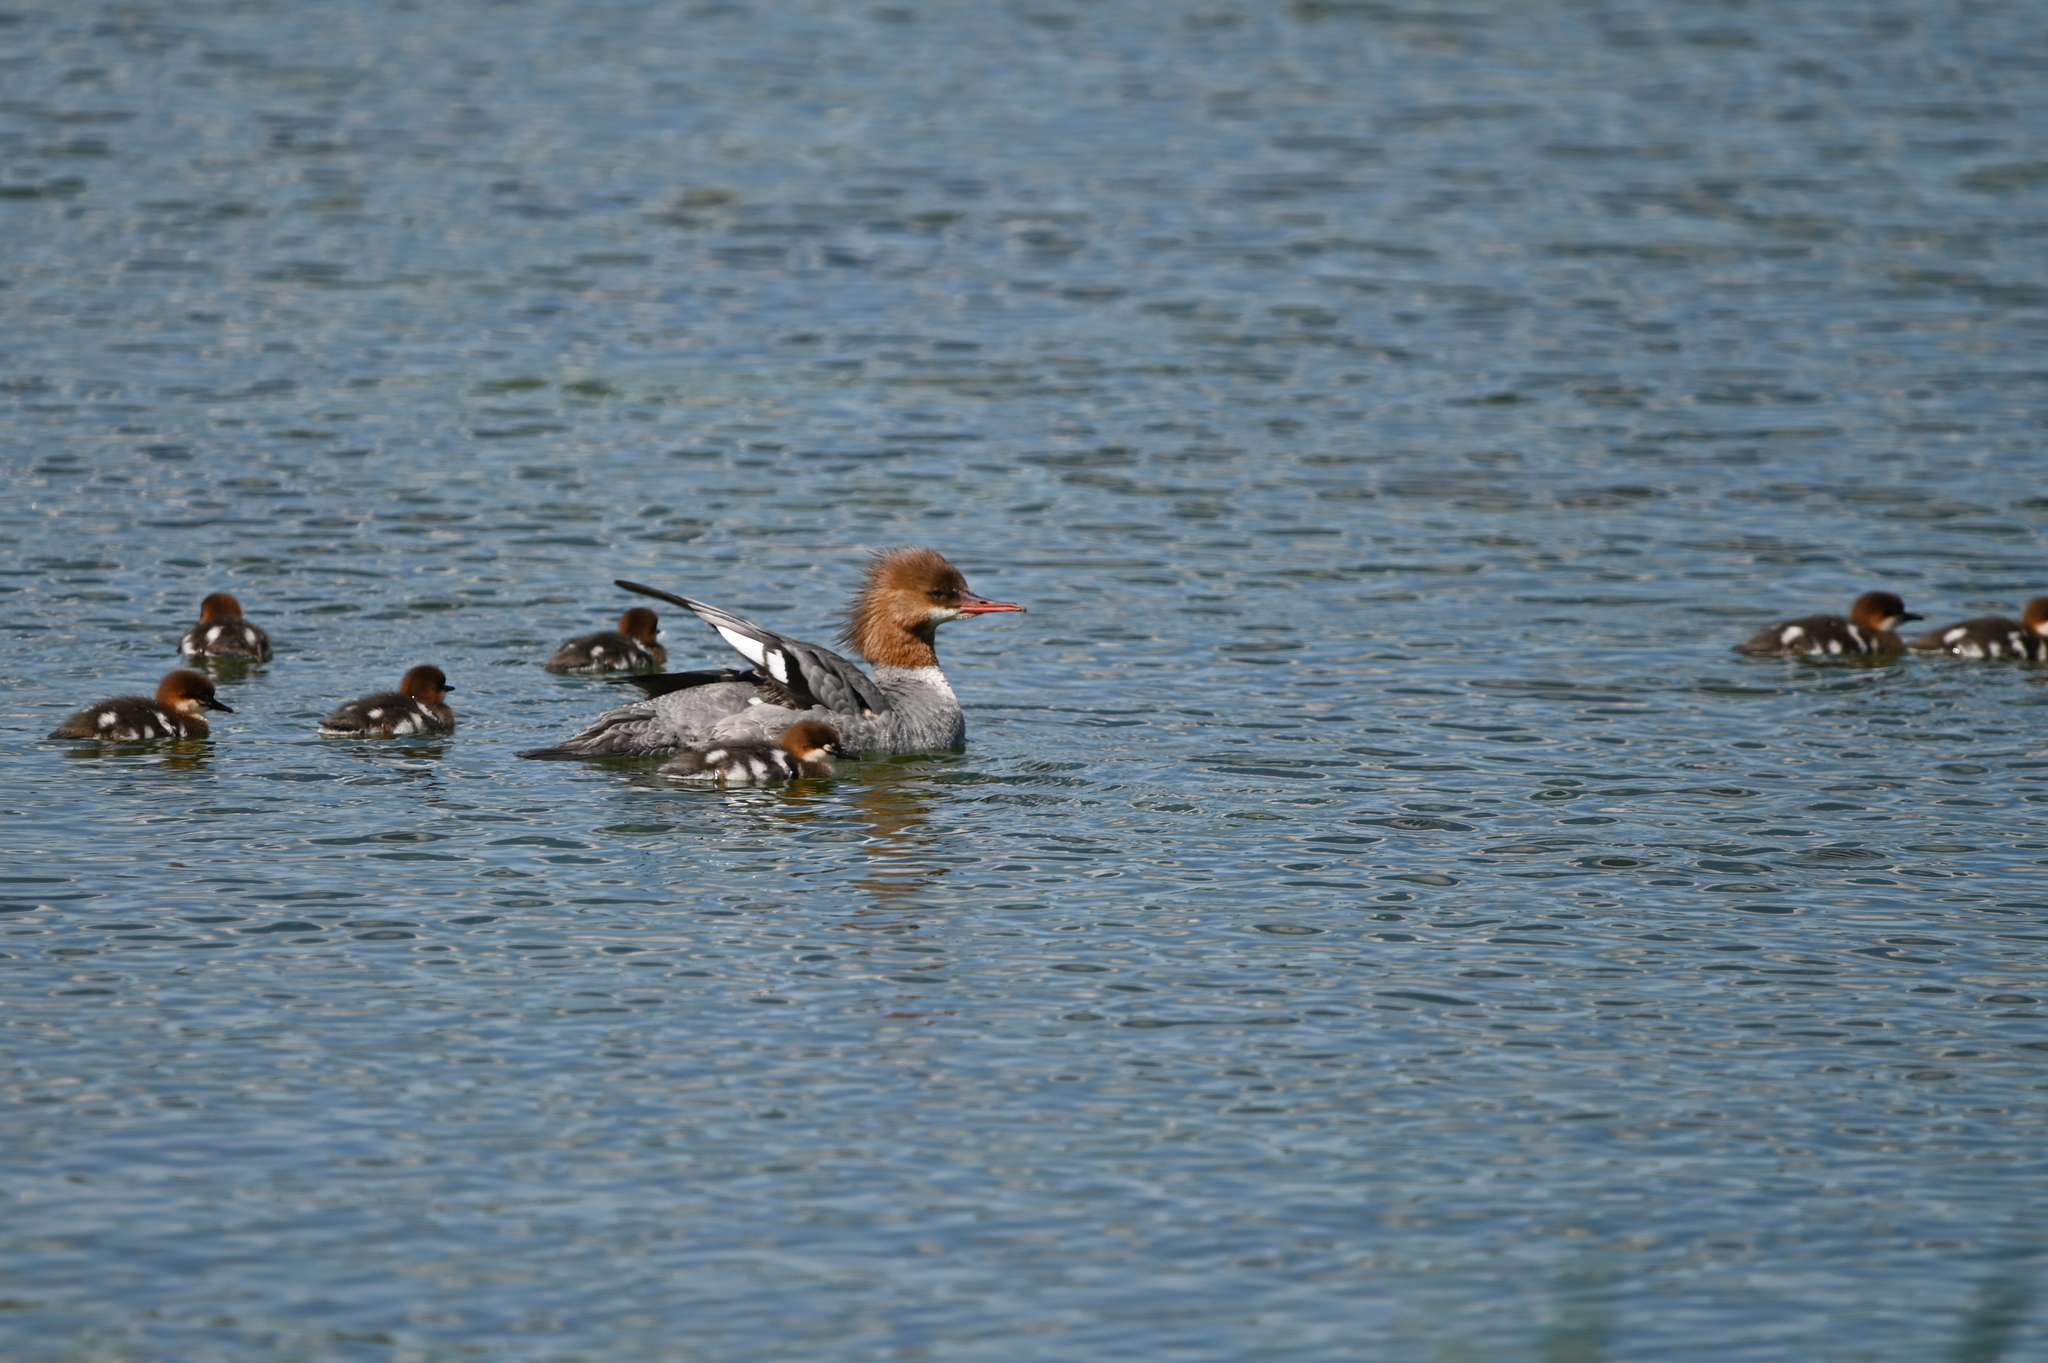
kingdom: Animalia
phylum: Chordata
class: Aves
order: Anseriformes
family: Anatidae
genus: Mergus
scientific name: Mergus merganser
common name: Common merganser
